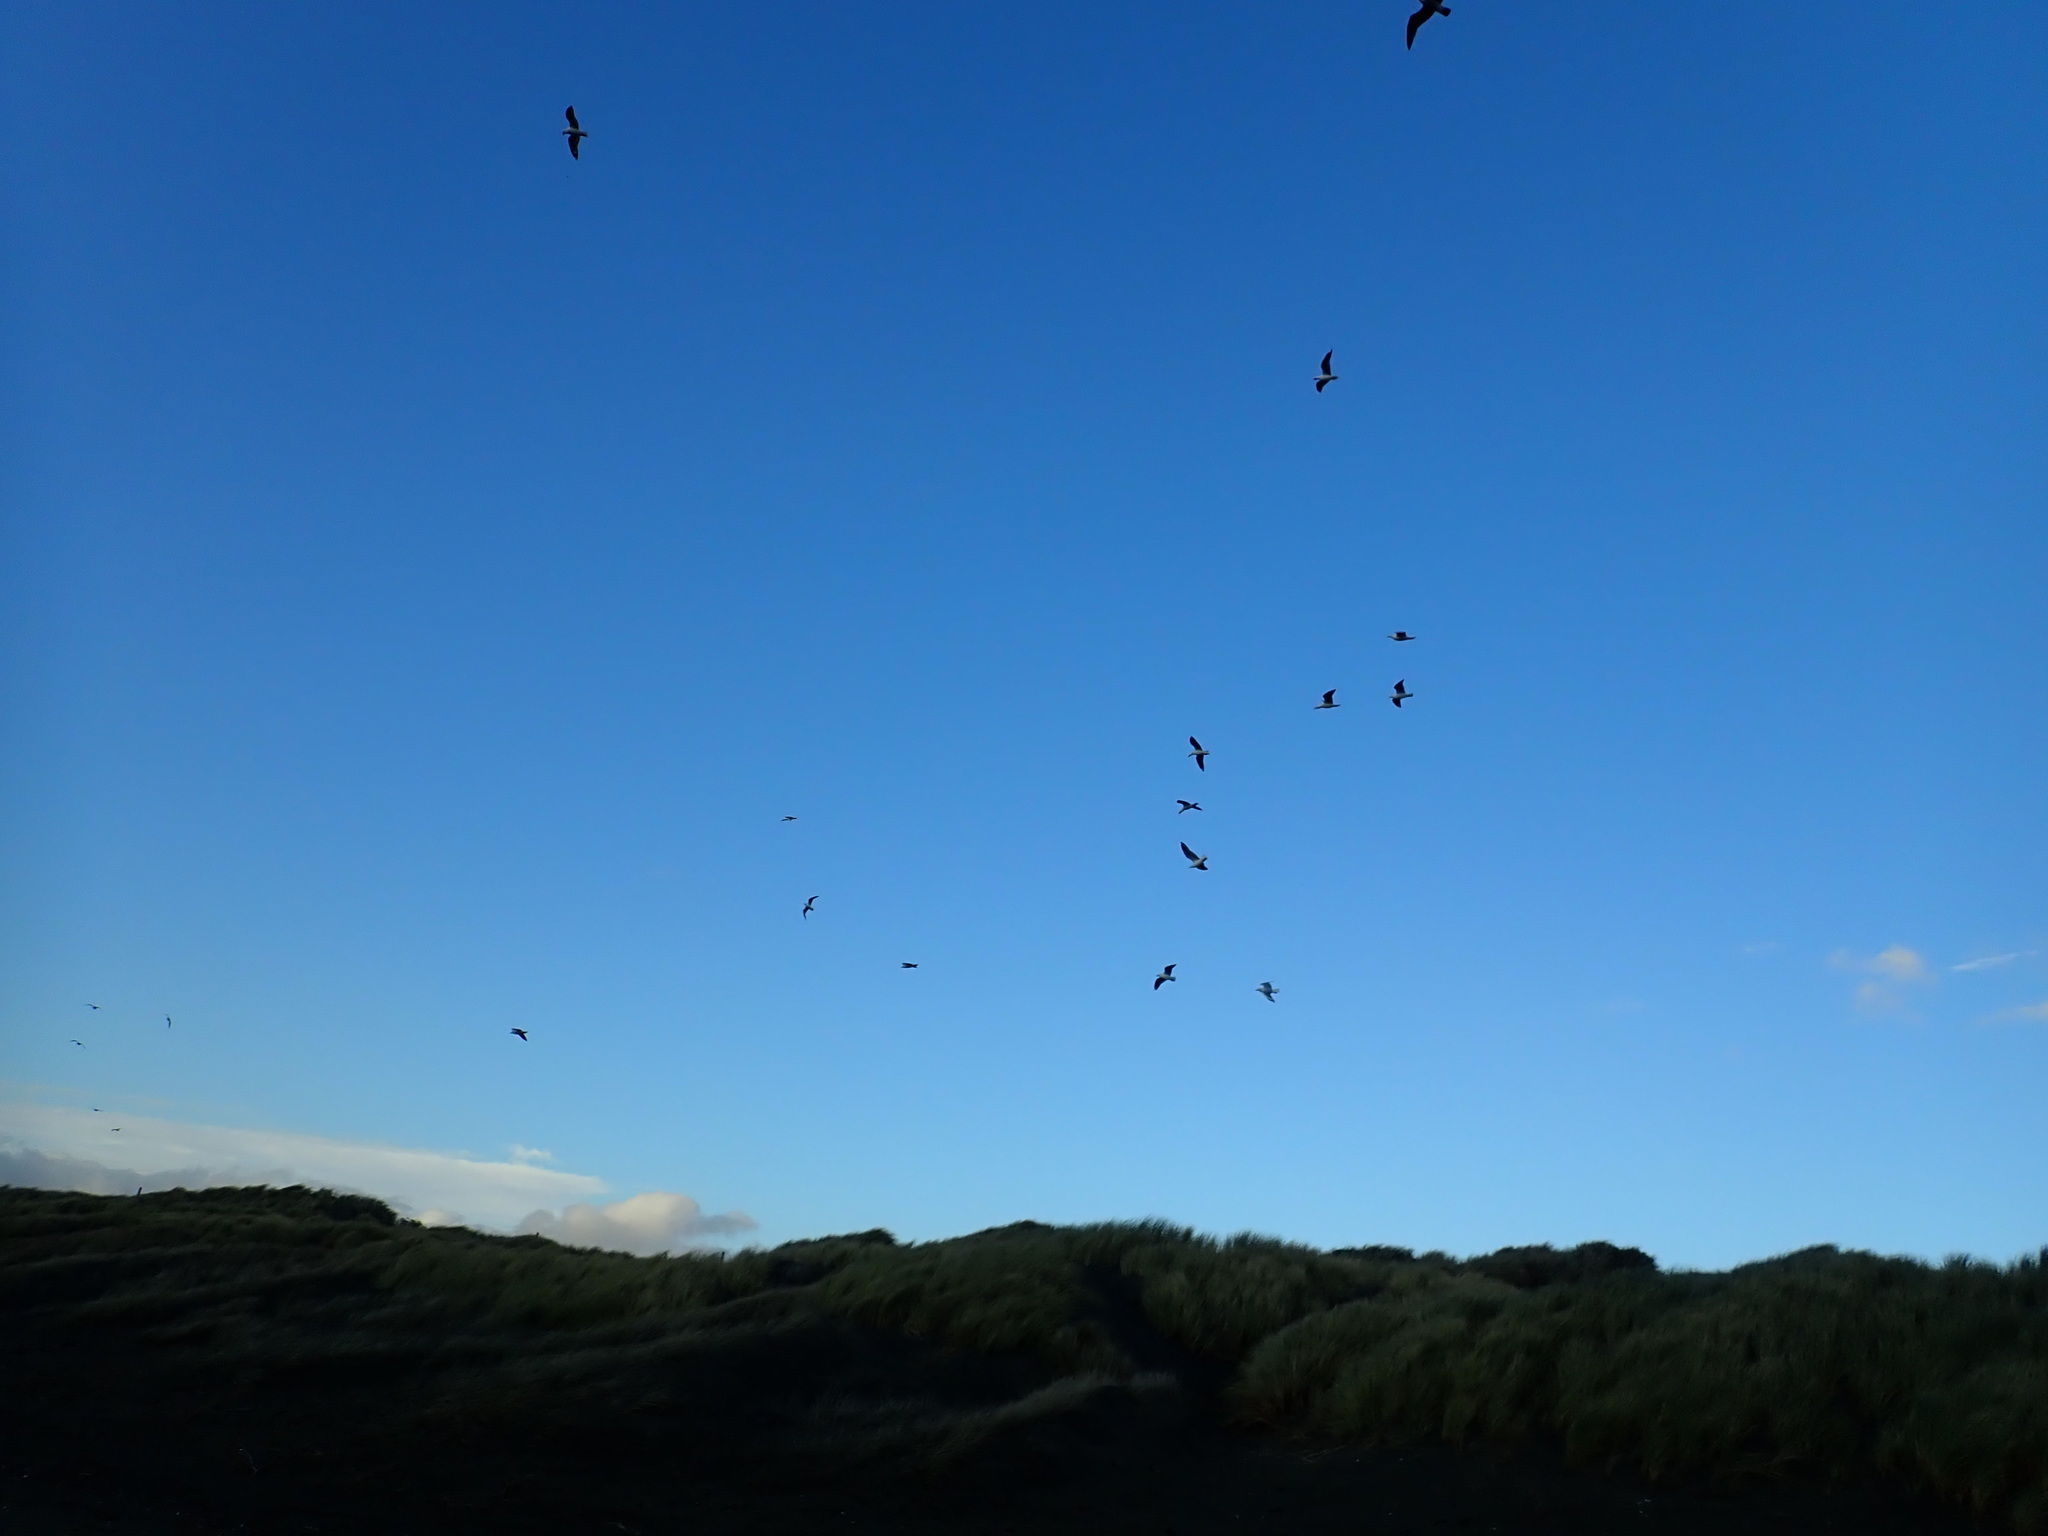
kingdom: Animalia
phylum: Chordata
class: Aves
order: Charadriiformes
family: Laridae
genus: Chroicocephalus
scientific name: Chroicocephalus bulleri
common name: Black-billed gull
